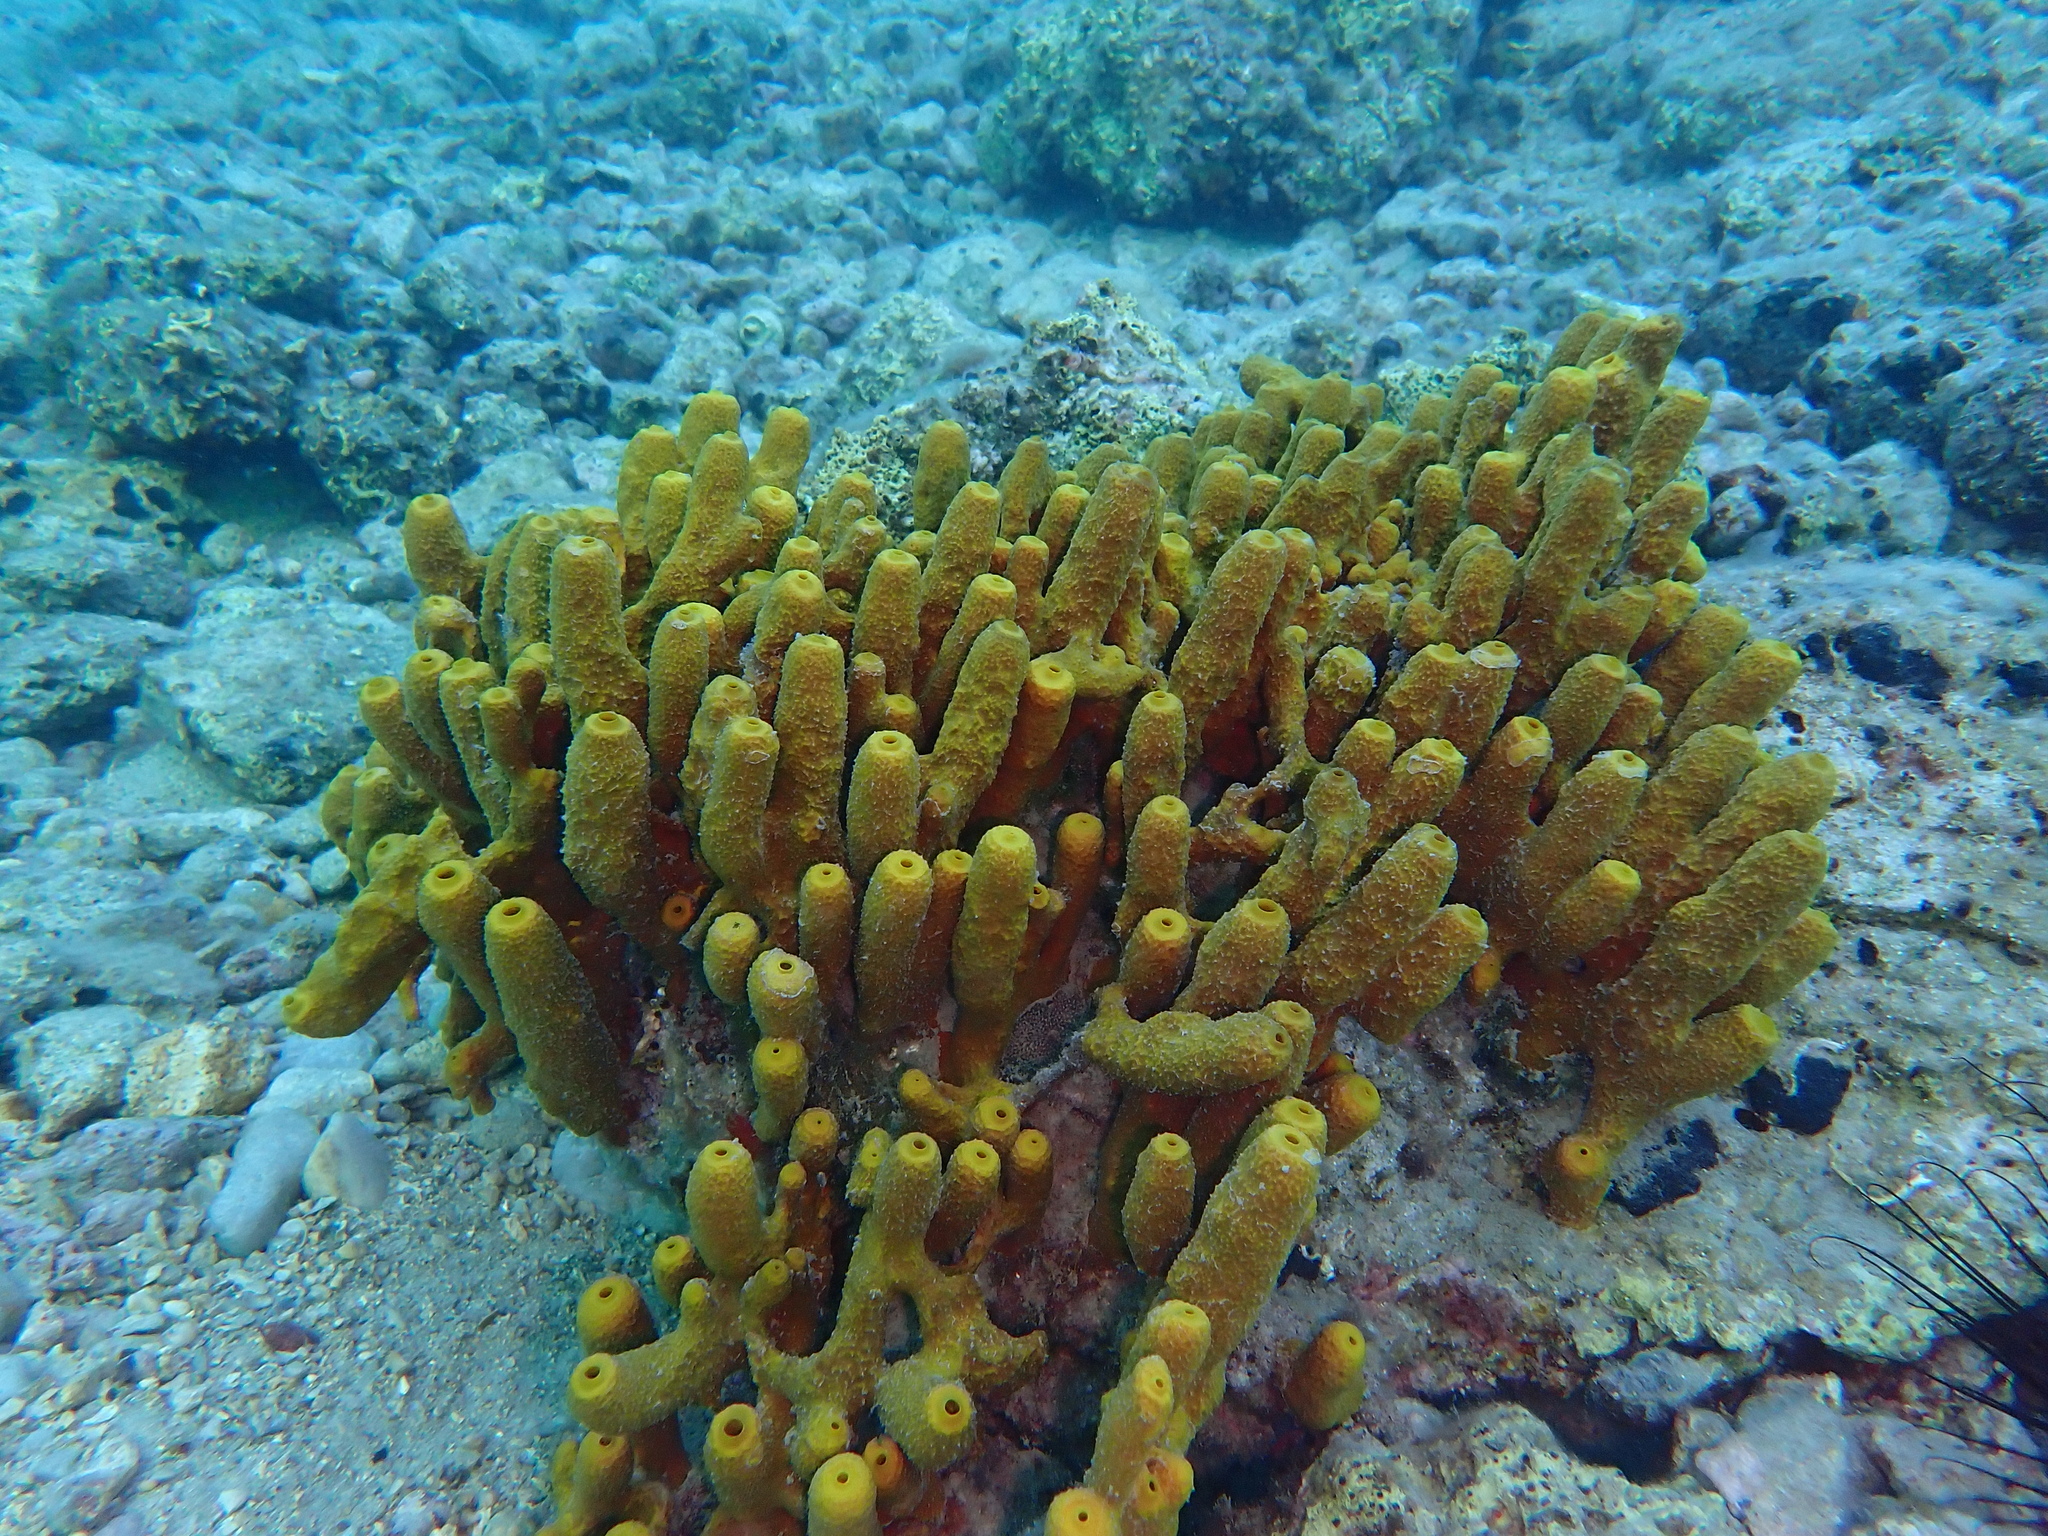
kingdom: Animalia
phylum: Porifera
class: Demospongiae
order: Verongiida
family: Aplysinidae
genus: Aplysina
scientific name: Aplysina aerophoba
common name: Aureate sponge
